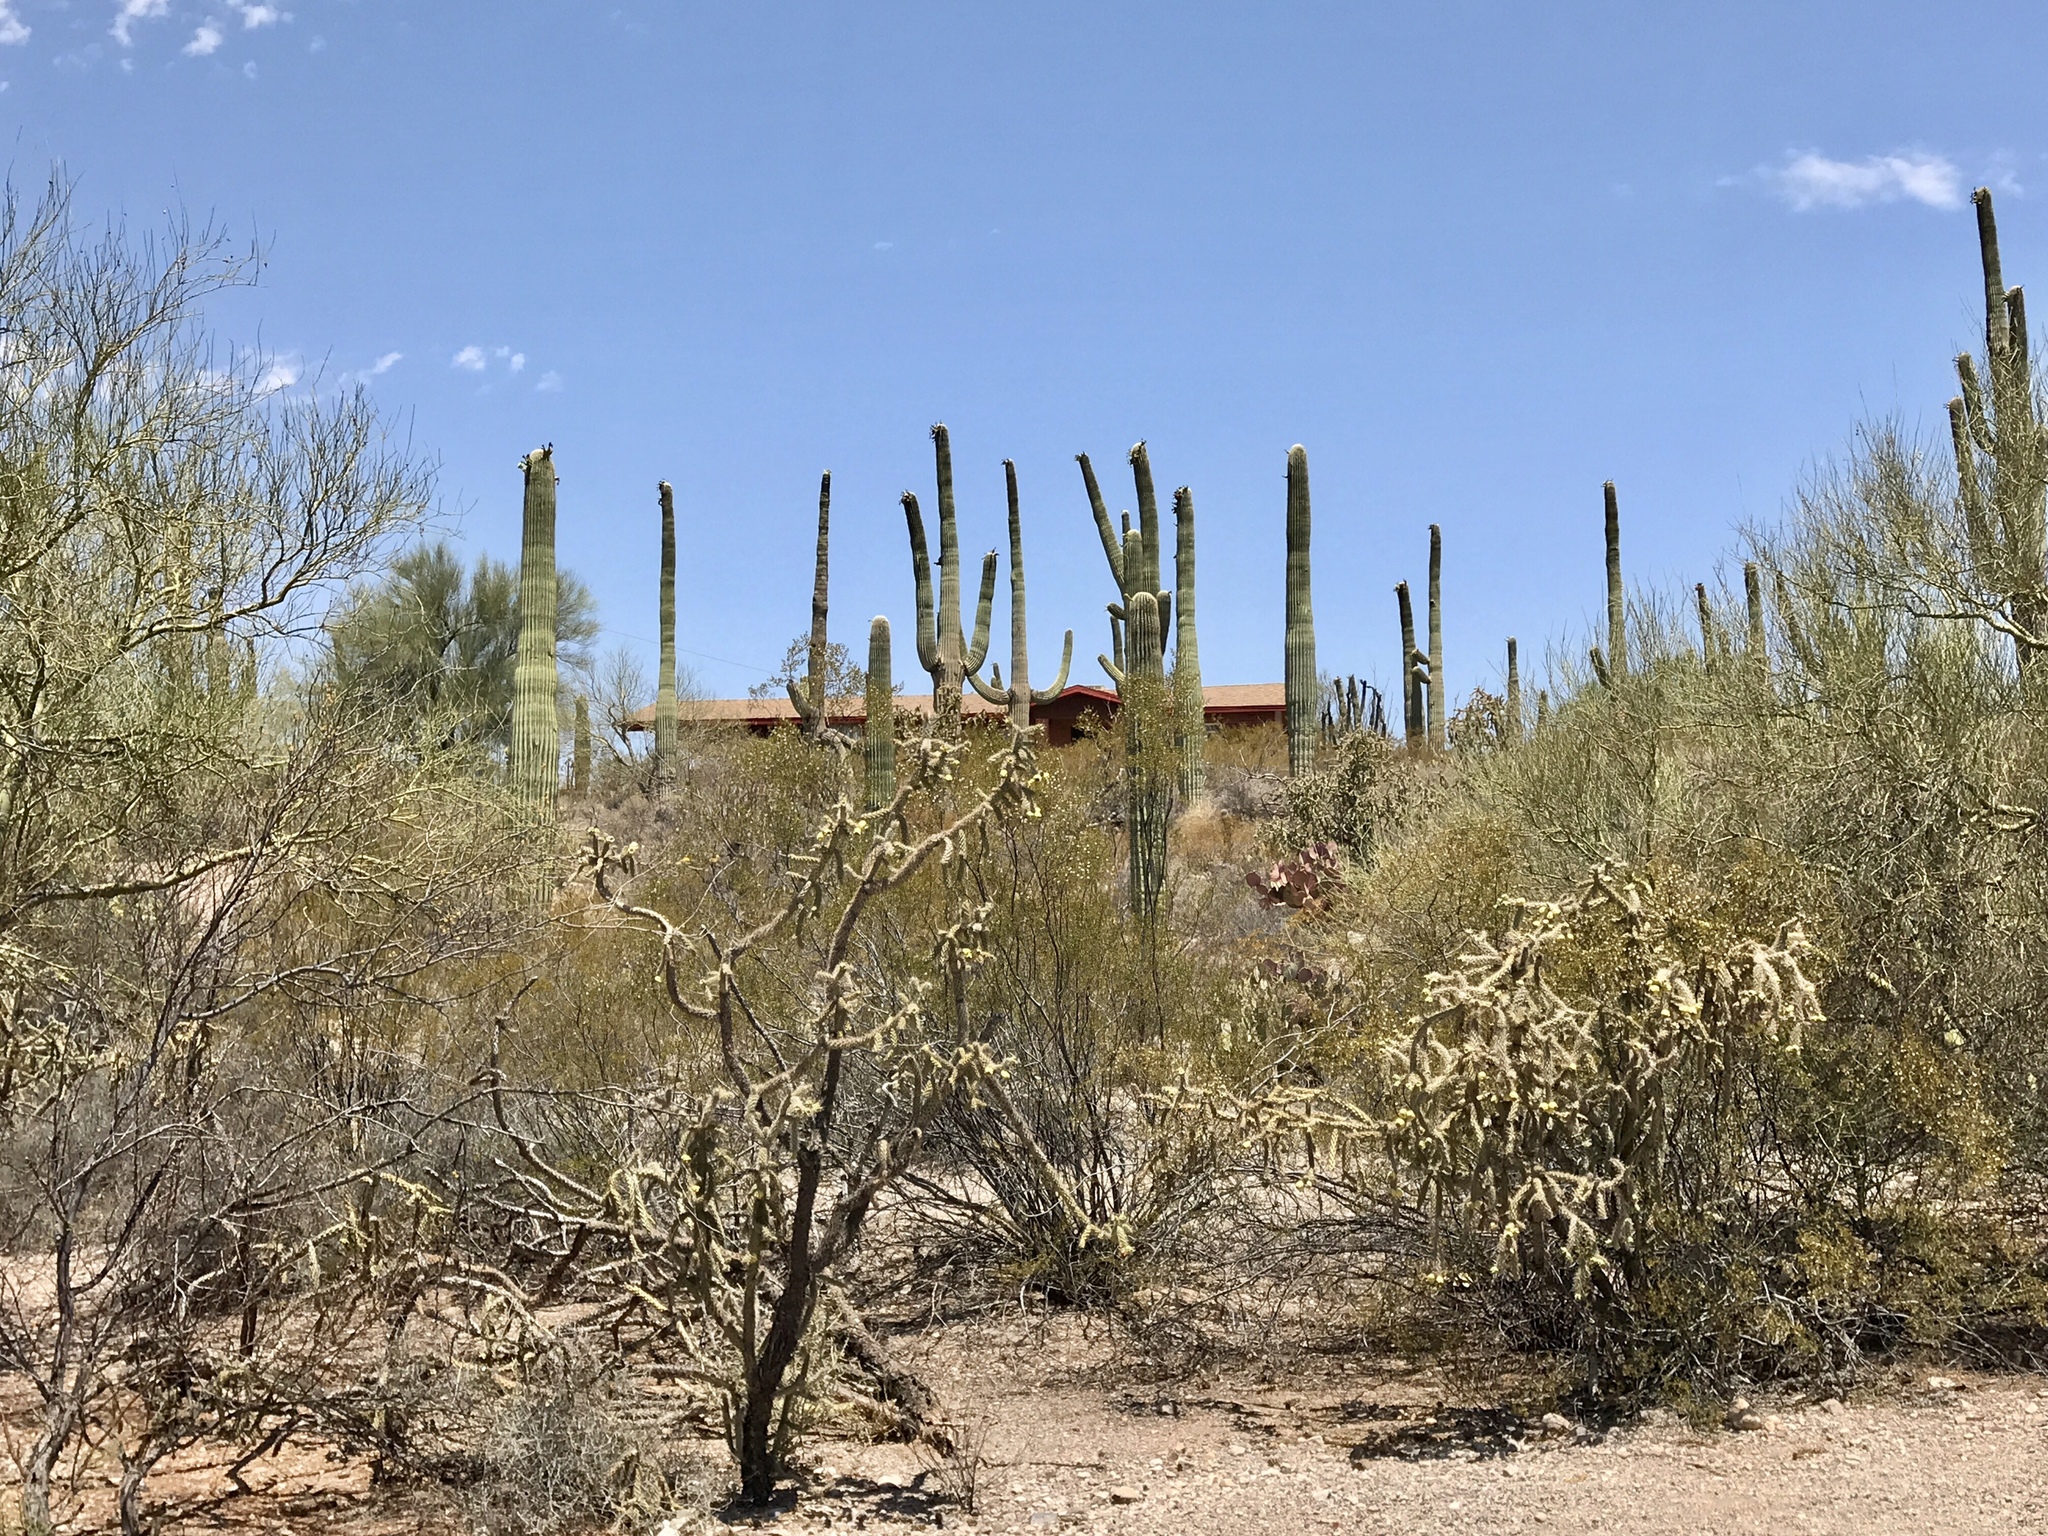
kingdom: Plantae
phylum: Tracheophyta
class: Magnoliopsida
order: Caryophyllales
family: Cactaceae
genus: Cylindropuntia
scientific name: Cylindropuntia acanthocarpa
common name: Buckhorn cholla
